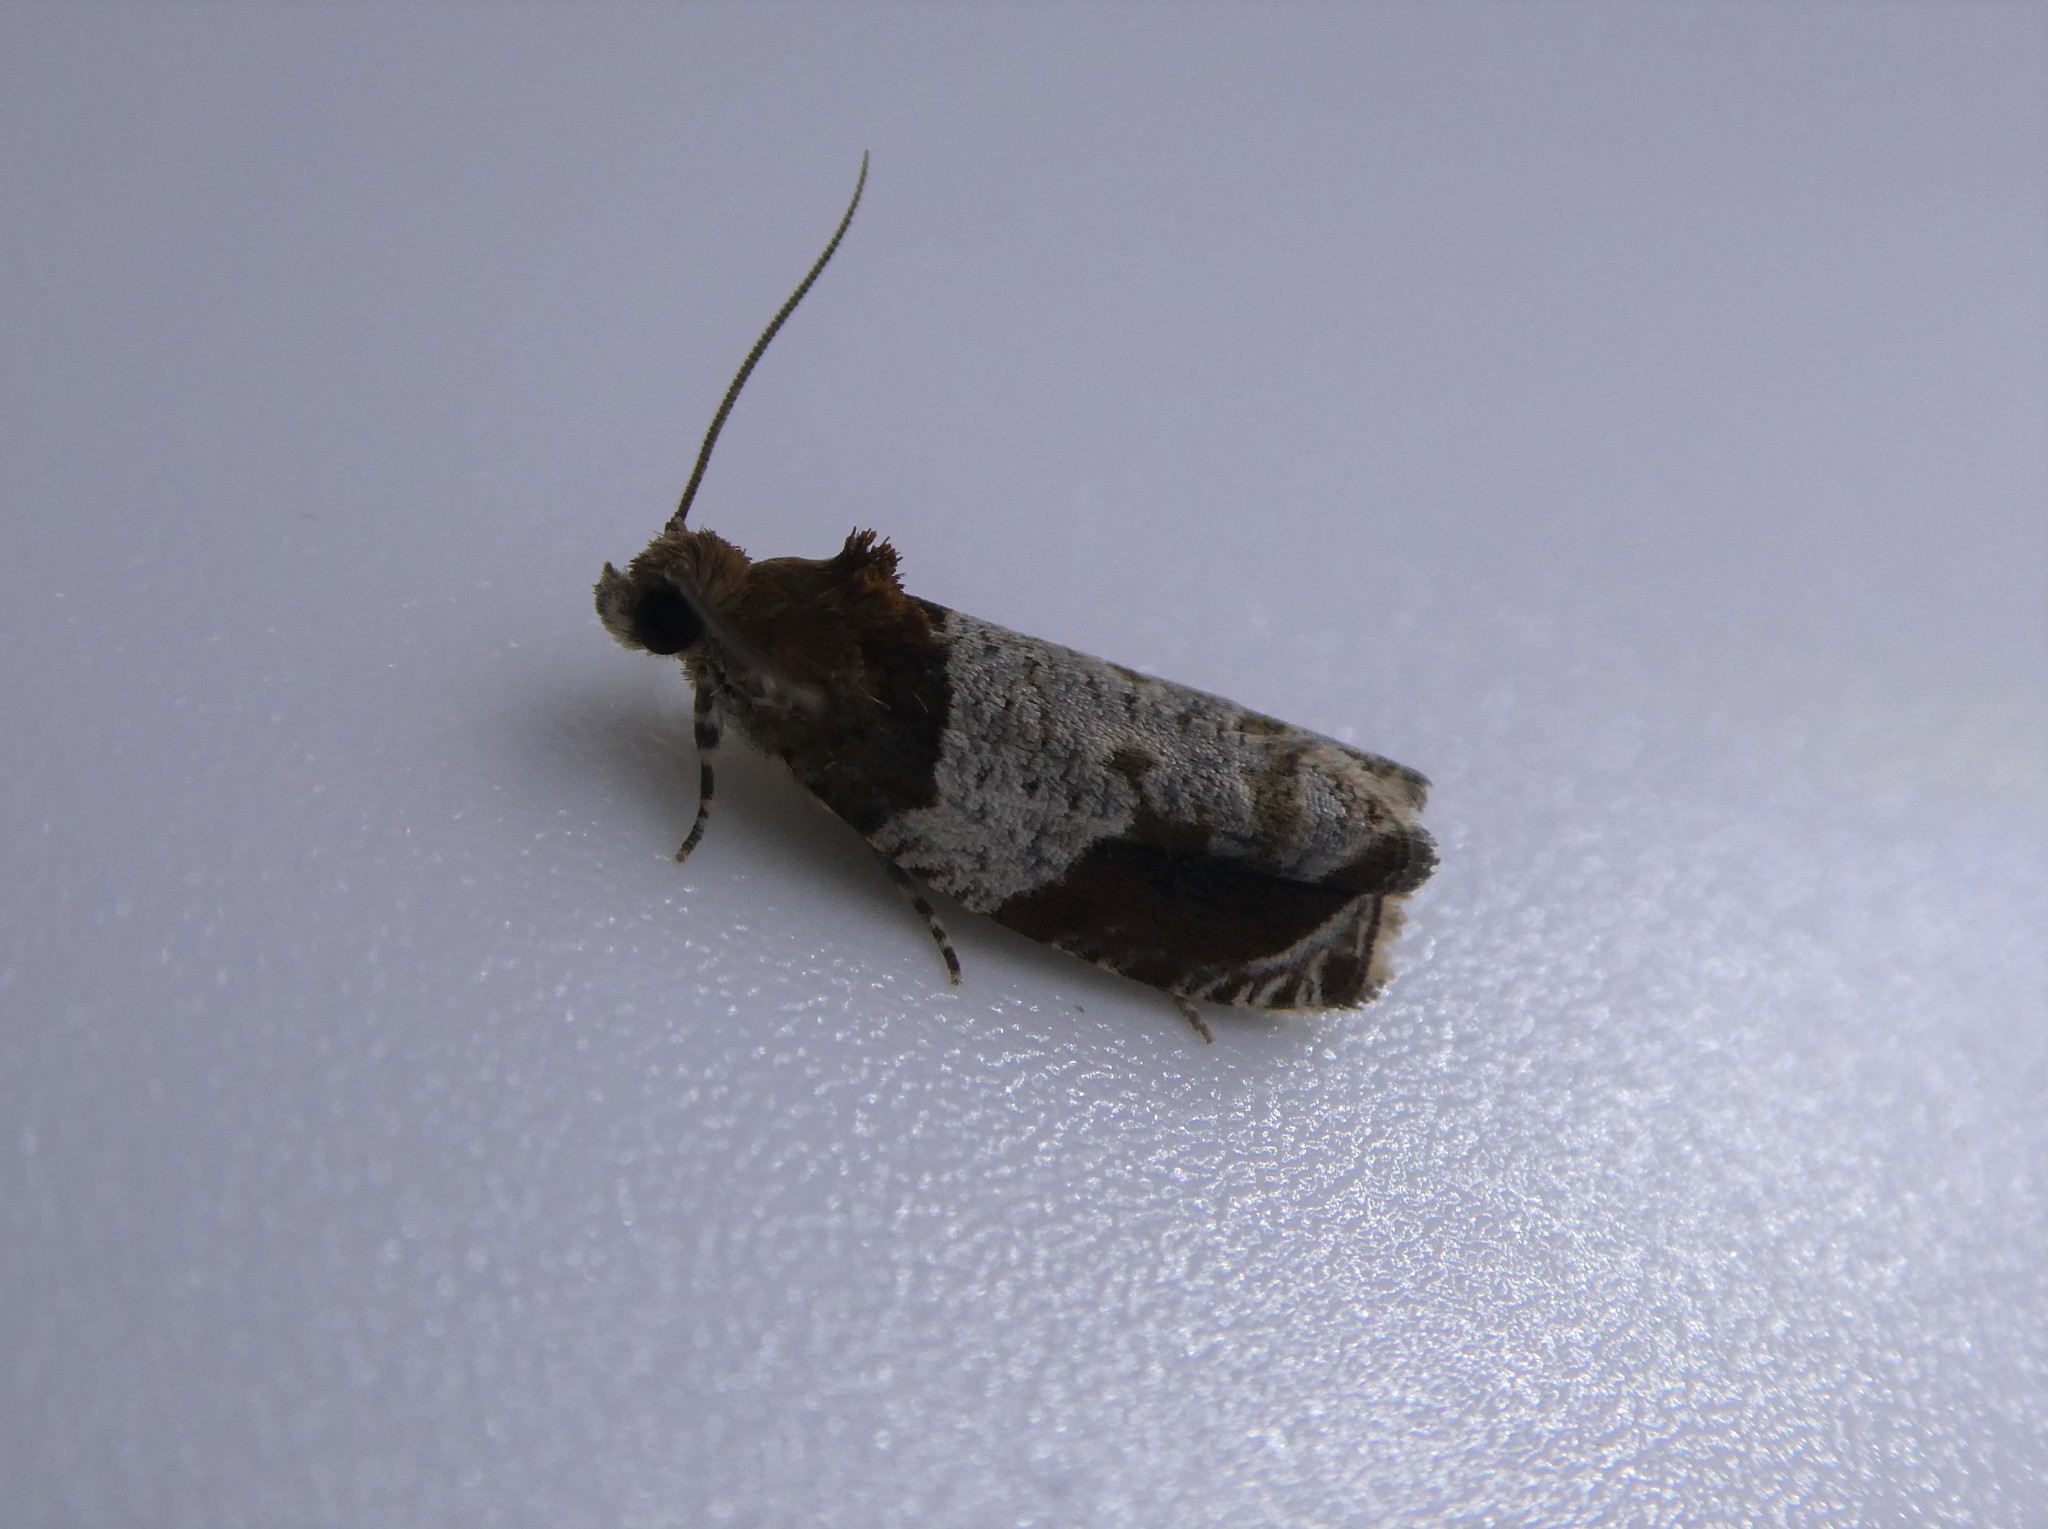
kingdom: Animalia
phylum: Arthropoda
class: Insecta
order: Lepidoptera
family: Tortricidae
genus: Olethreutes
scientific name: Olethreutes ferriferana
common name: Hydrangea leaftier moth
